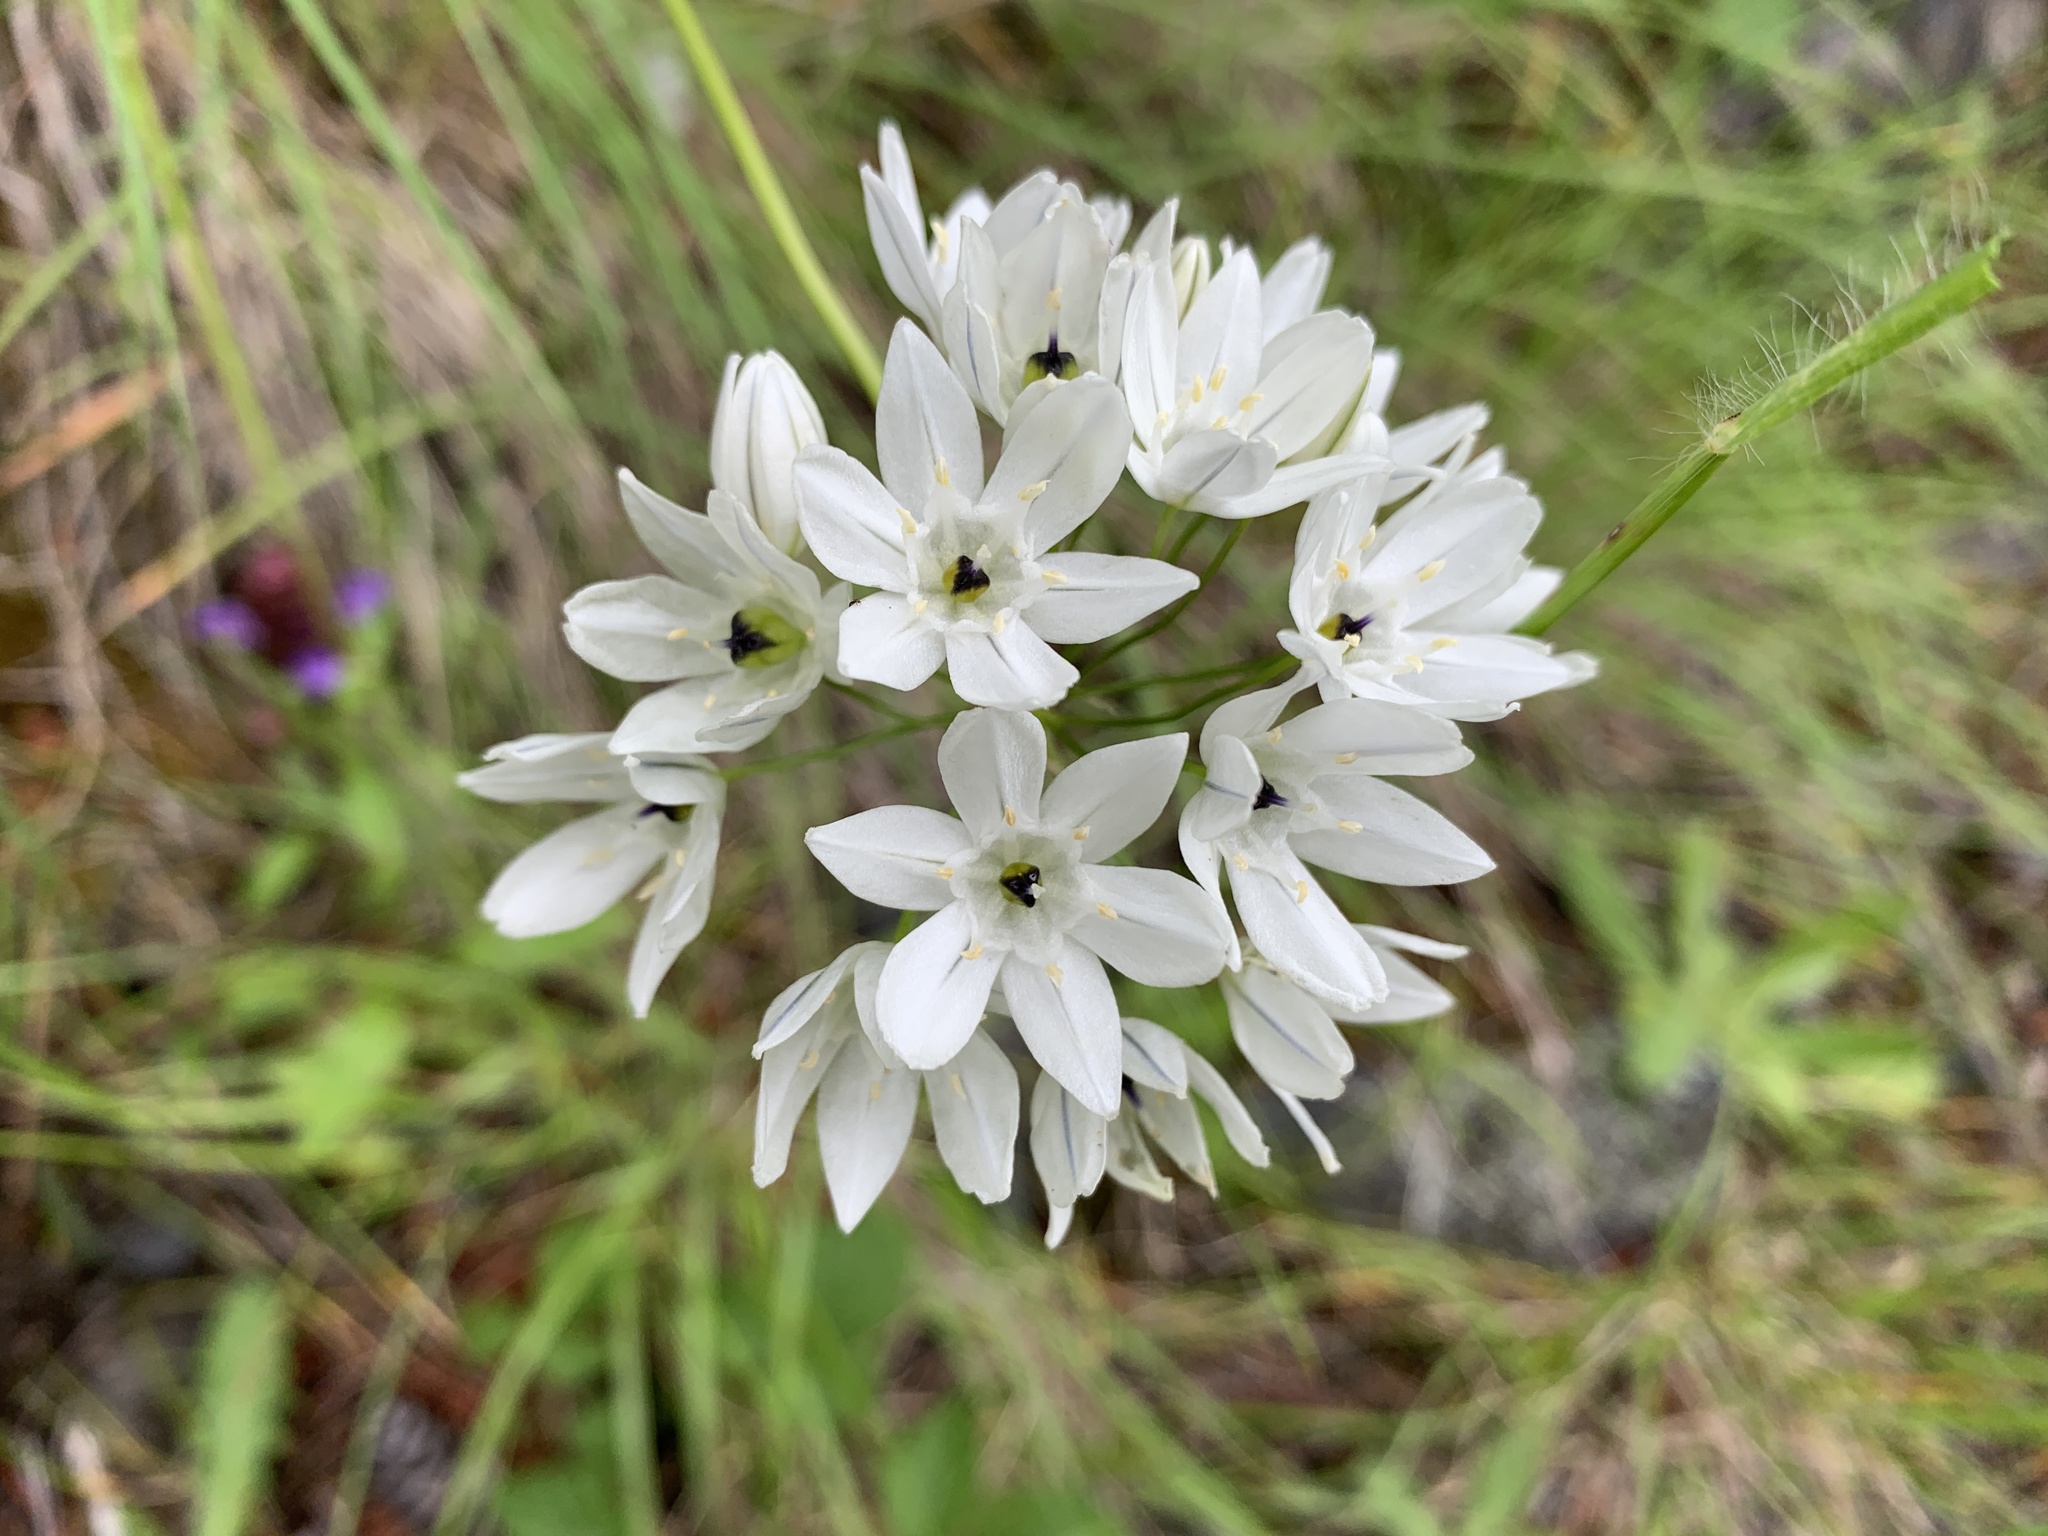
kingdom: Plantae
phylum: Tracheophyta
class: Liliopsida
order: Asparagales
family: Asparagaceae
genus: Triteleia
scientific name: Triteleia hyacinthina
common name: White brodiaea
